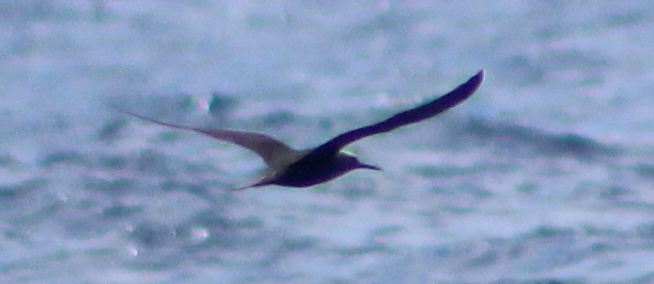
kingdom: Animalia
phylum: Chordata
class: Aves
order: Charadriiformes
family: Laridae
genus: Anous
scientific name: Anous minutus
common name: Black noddy
